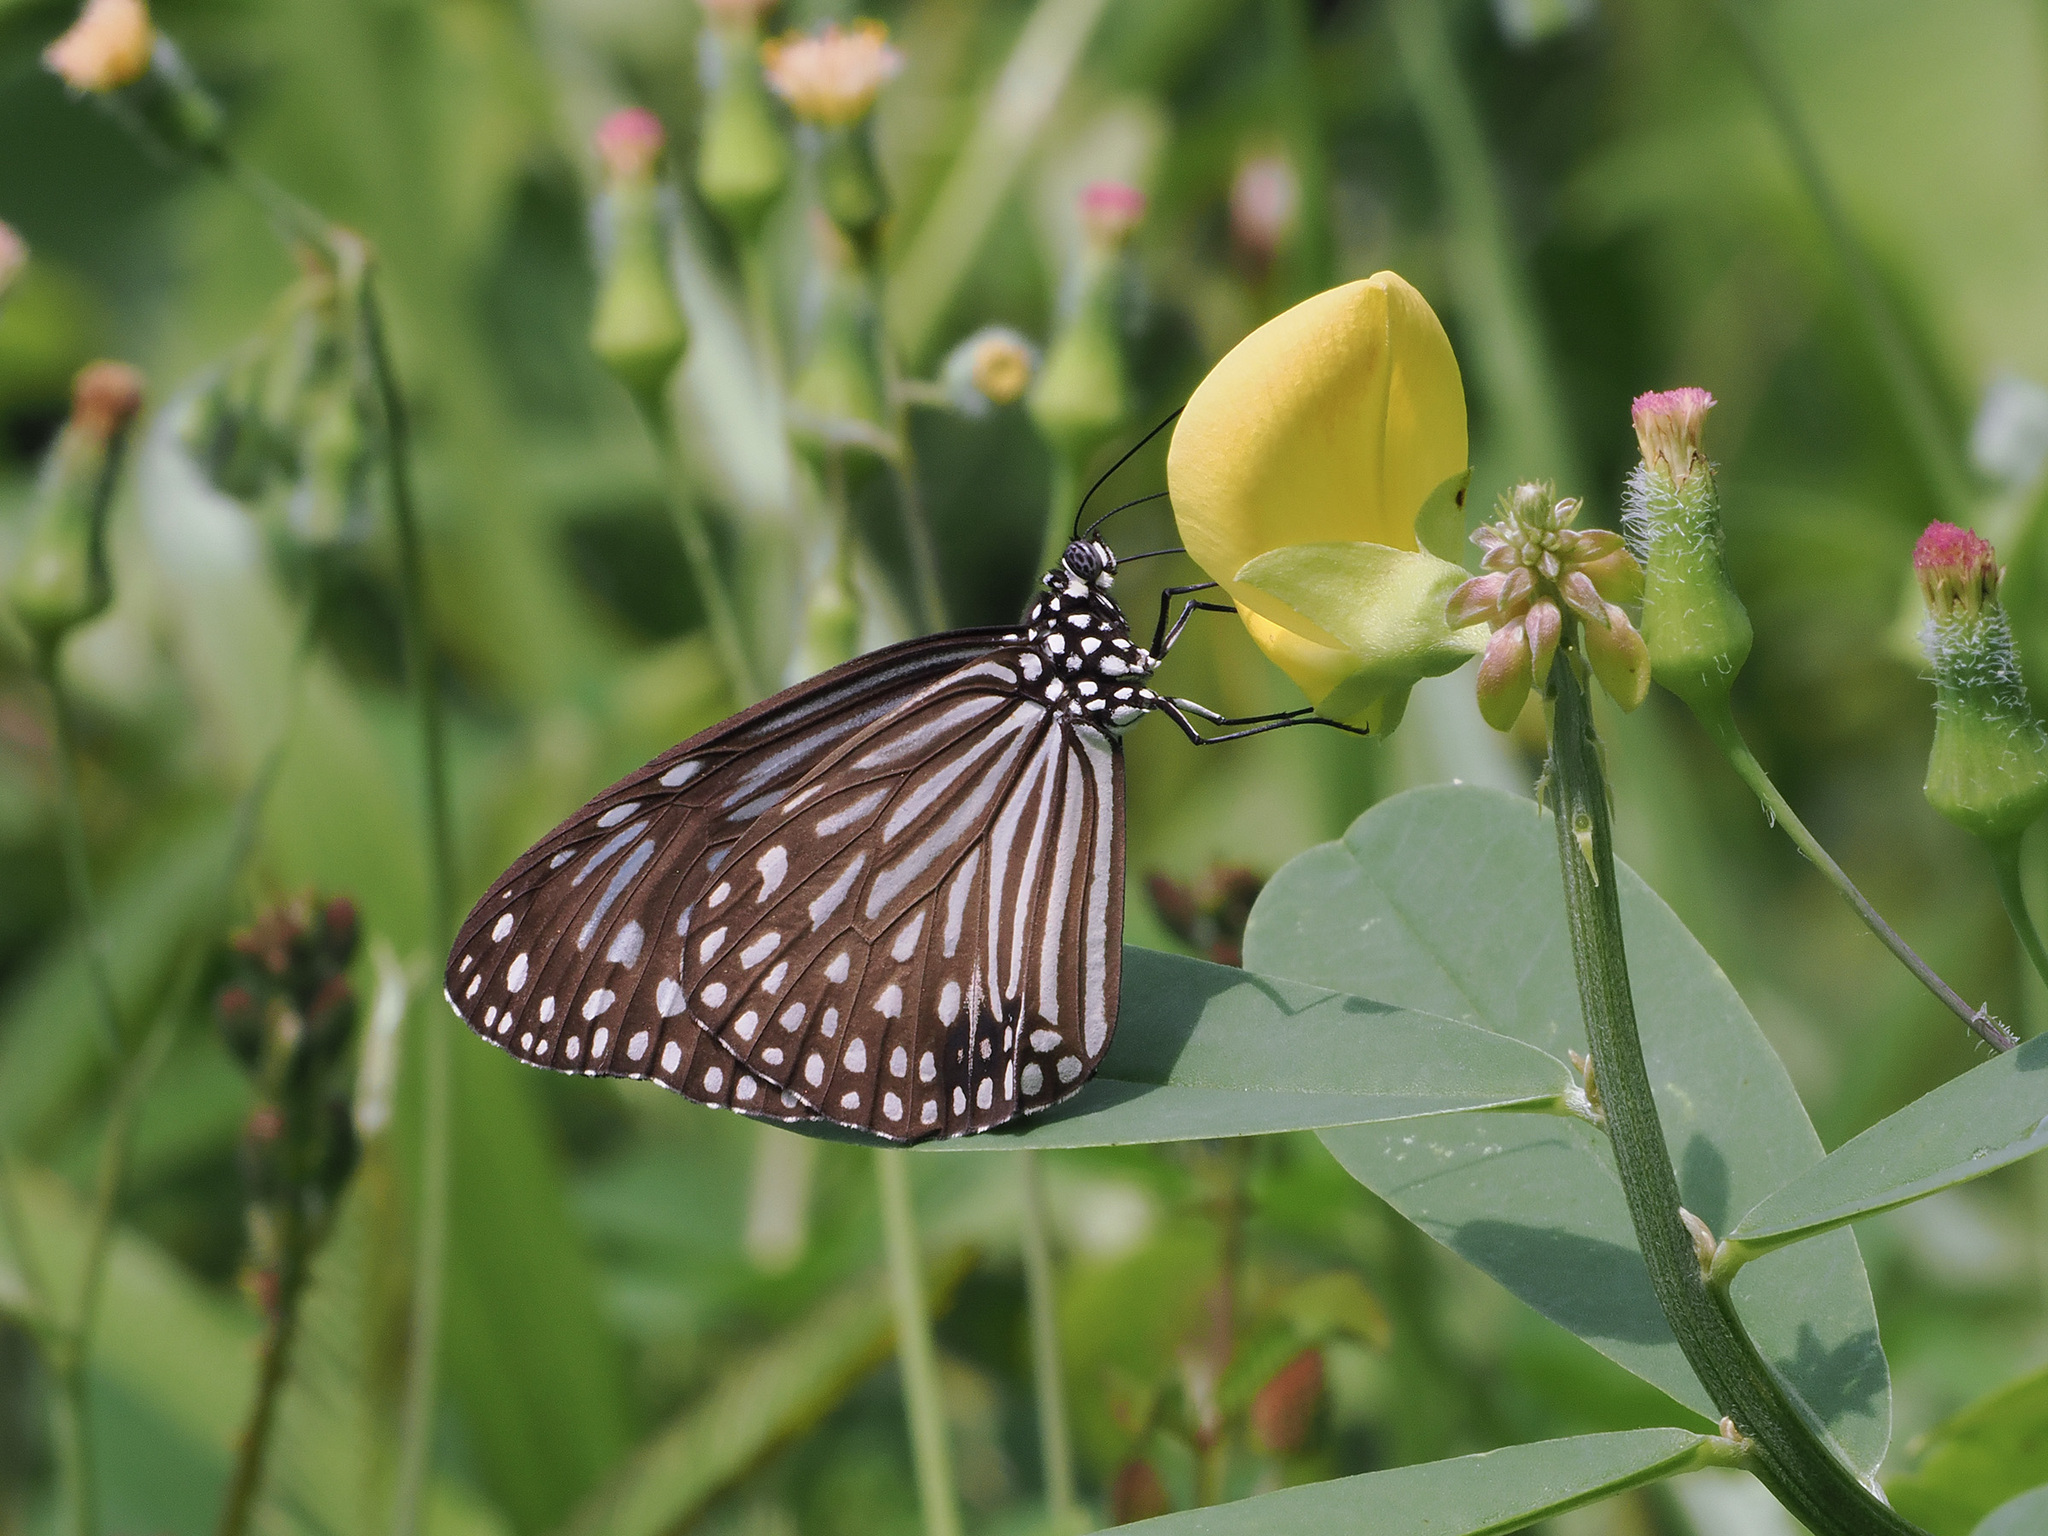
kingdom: Animalia
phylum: Arthropoda
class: Insecta
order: Lepidoptera
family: Nymphalidae
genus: Parantica
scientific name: Parantica agleoides
